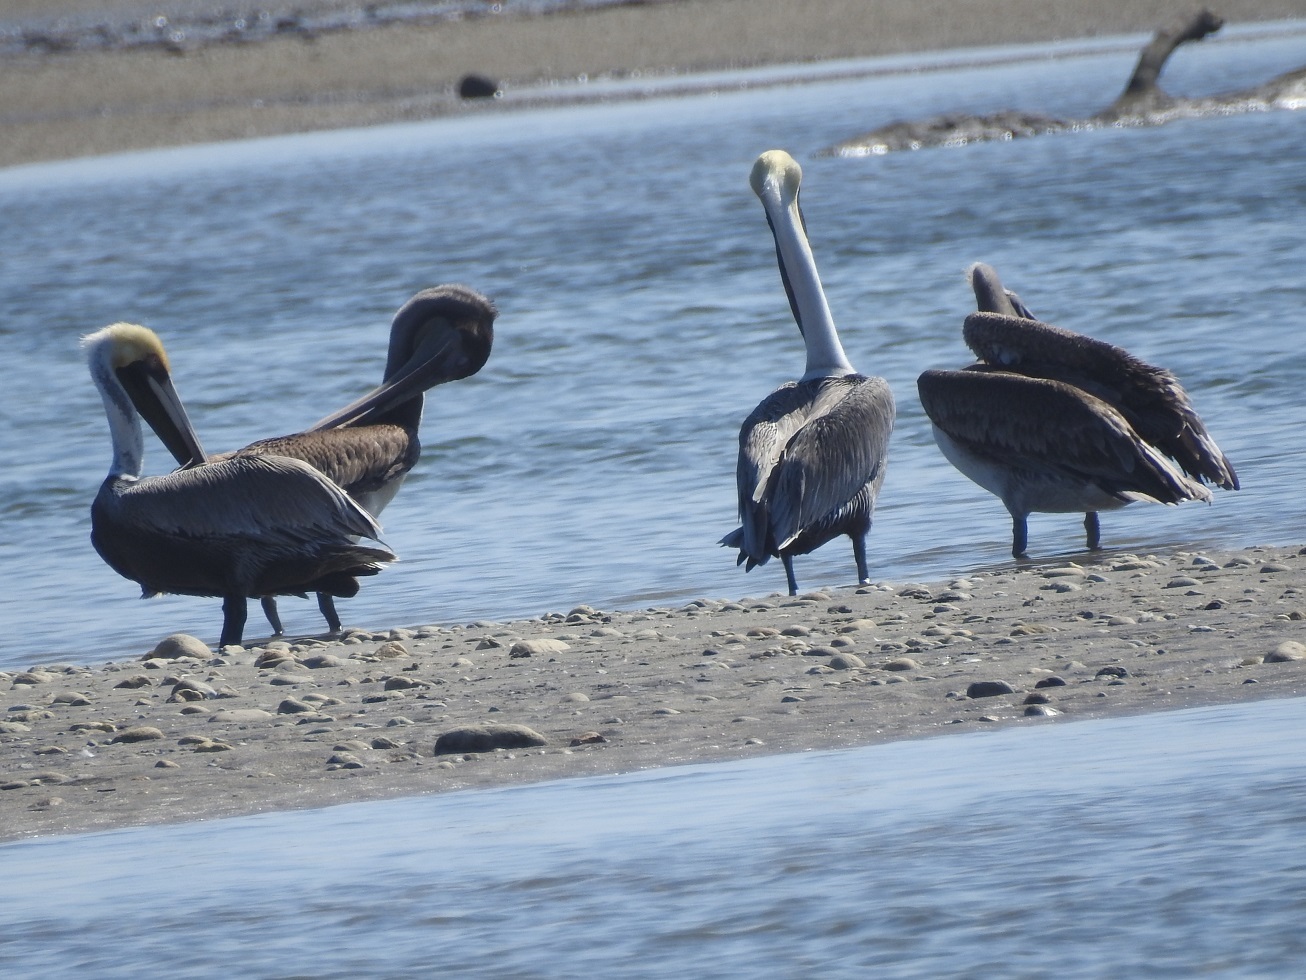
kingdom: Animalia
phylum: Chordata
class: Aves
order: Pelecaniformes
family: Pelecanidae
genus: Pelecanus
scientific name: Pelecanus occidentalis
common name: Brown pelican
